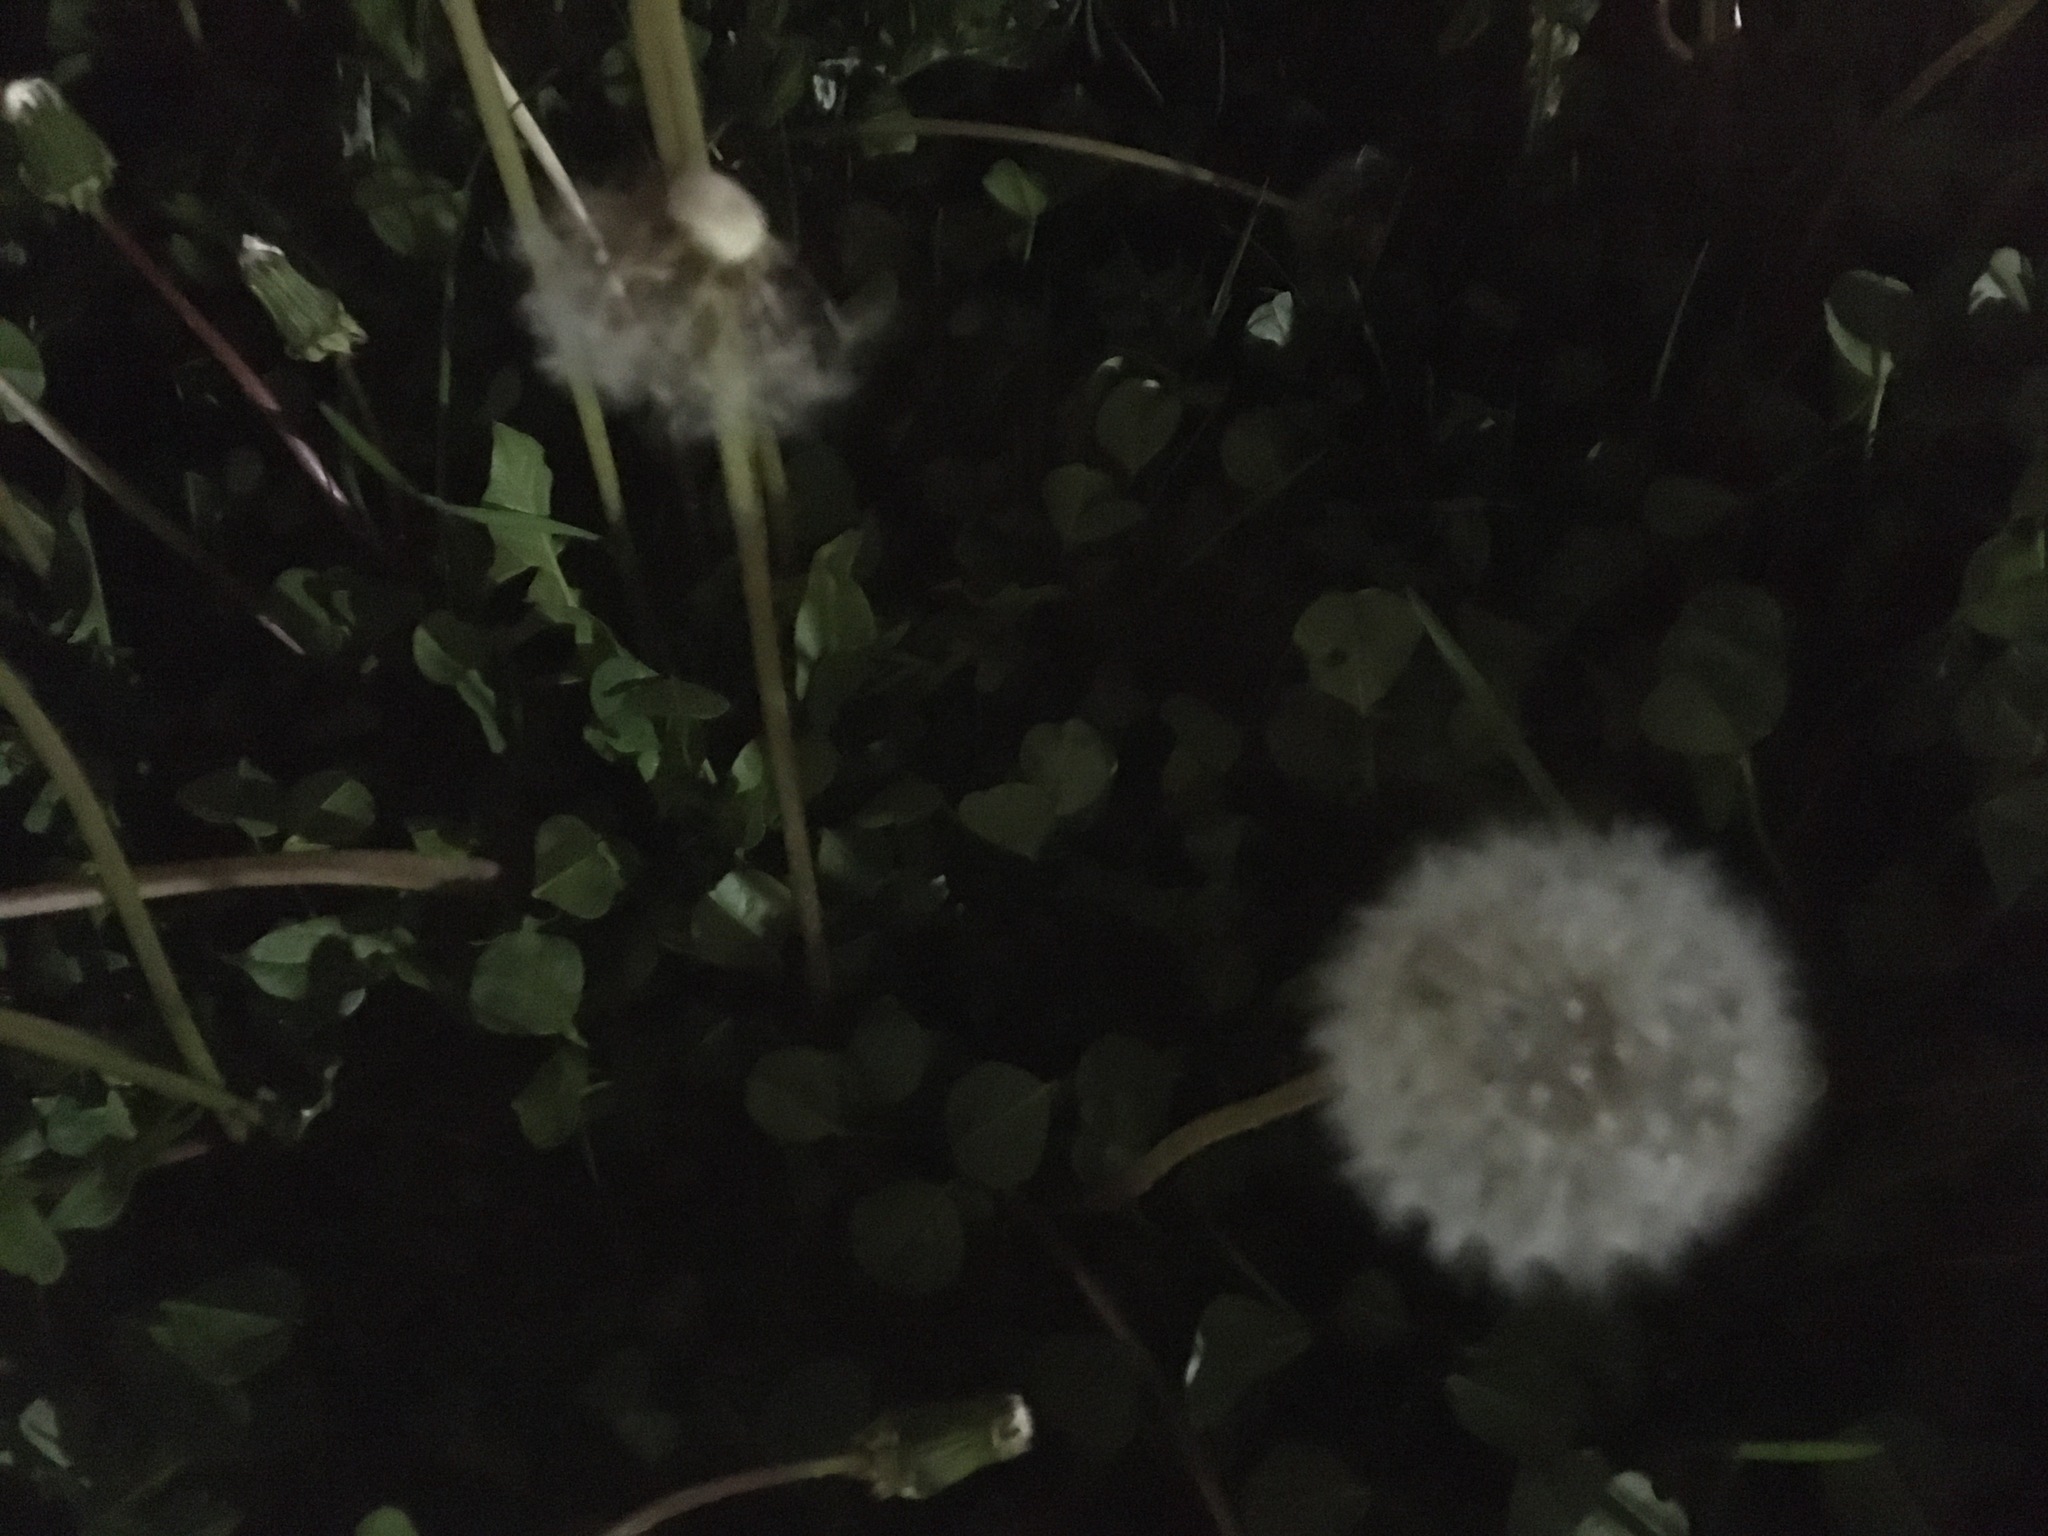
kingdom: Plantae
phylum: Tracheophyta
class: Magnoliopsida
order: Asterales
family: Asteraceae
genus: Taraxacum
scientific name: Taraxacum officinale
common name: Common dandelion
